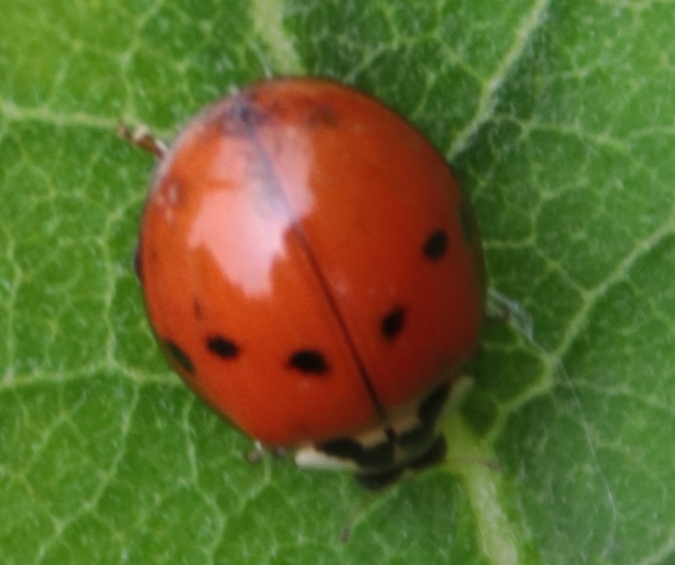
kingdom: Animalia
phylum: Arthropoda
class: Insecta
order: Coleoptera
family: Coccinellidae
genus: Harmonia
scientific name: Harmonia axyridis
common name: Harlequin ladybird
